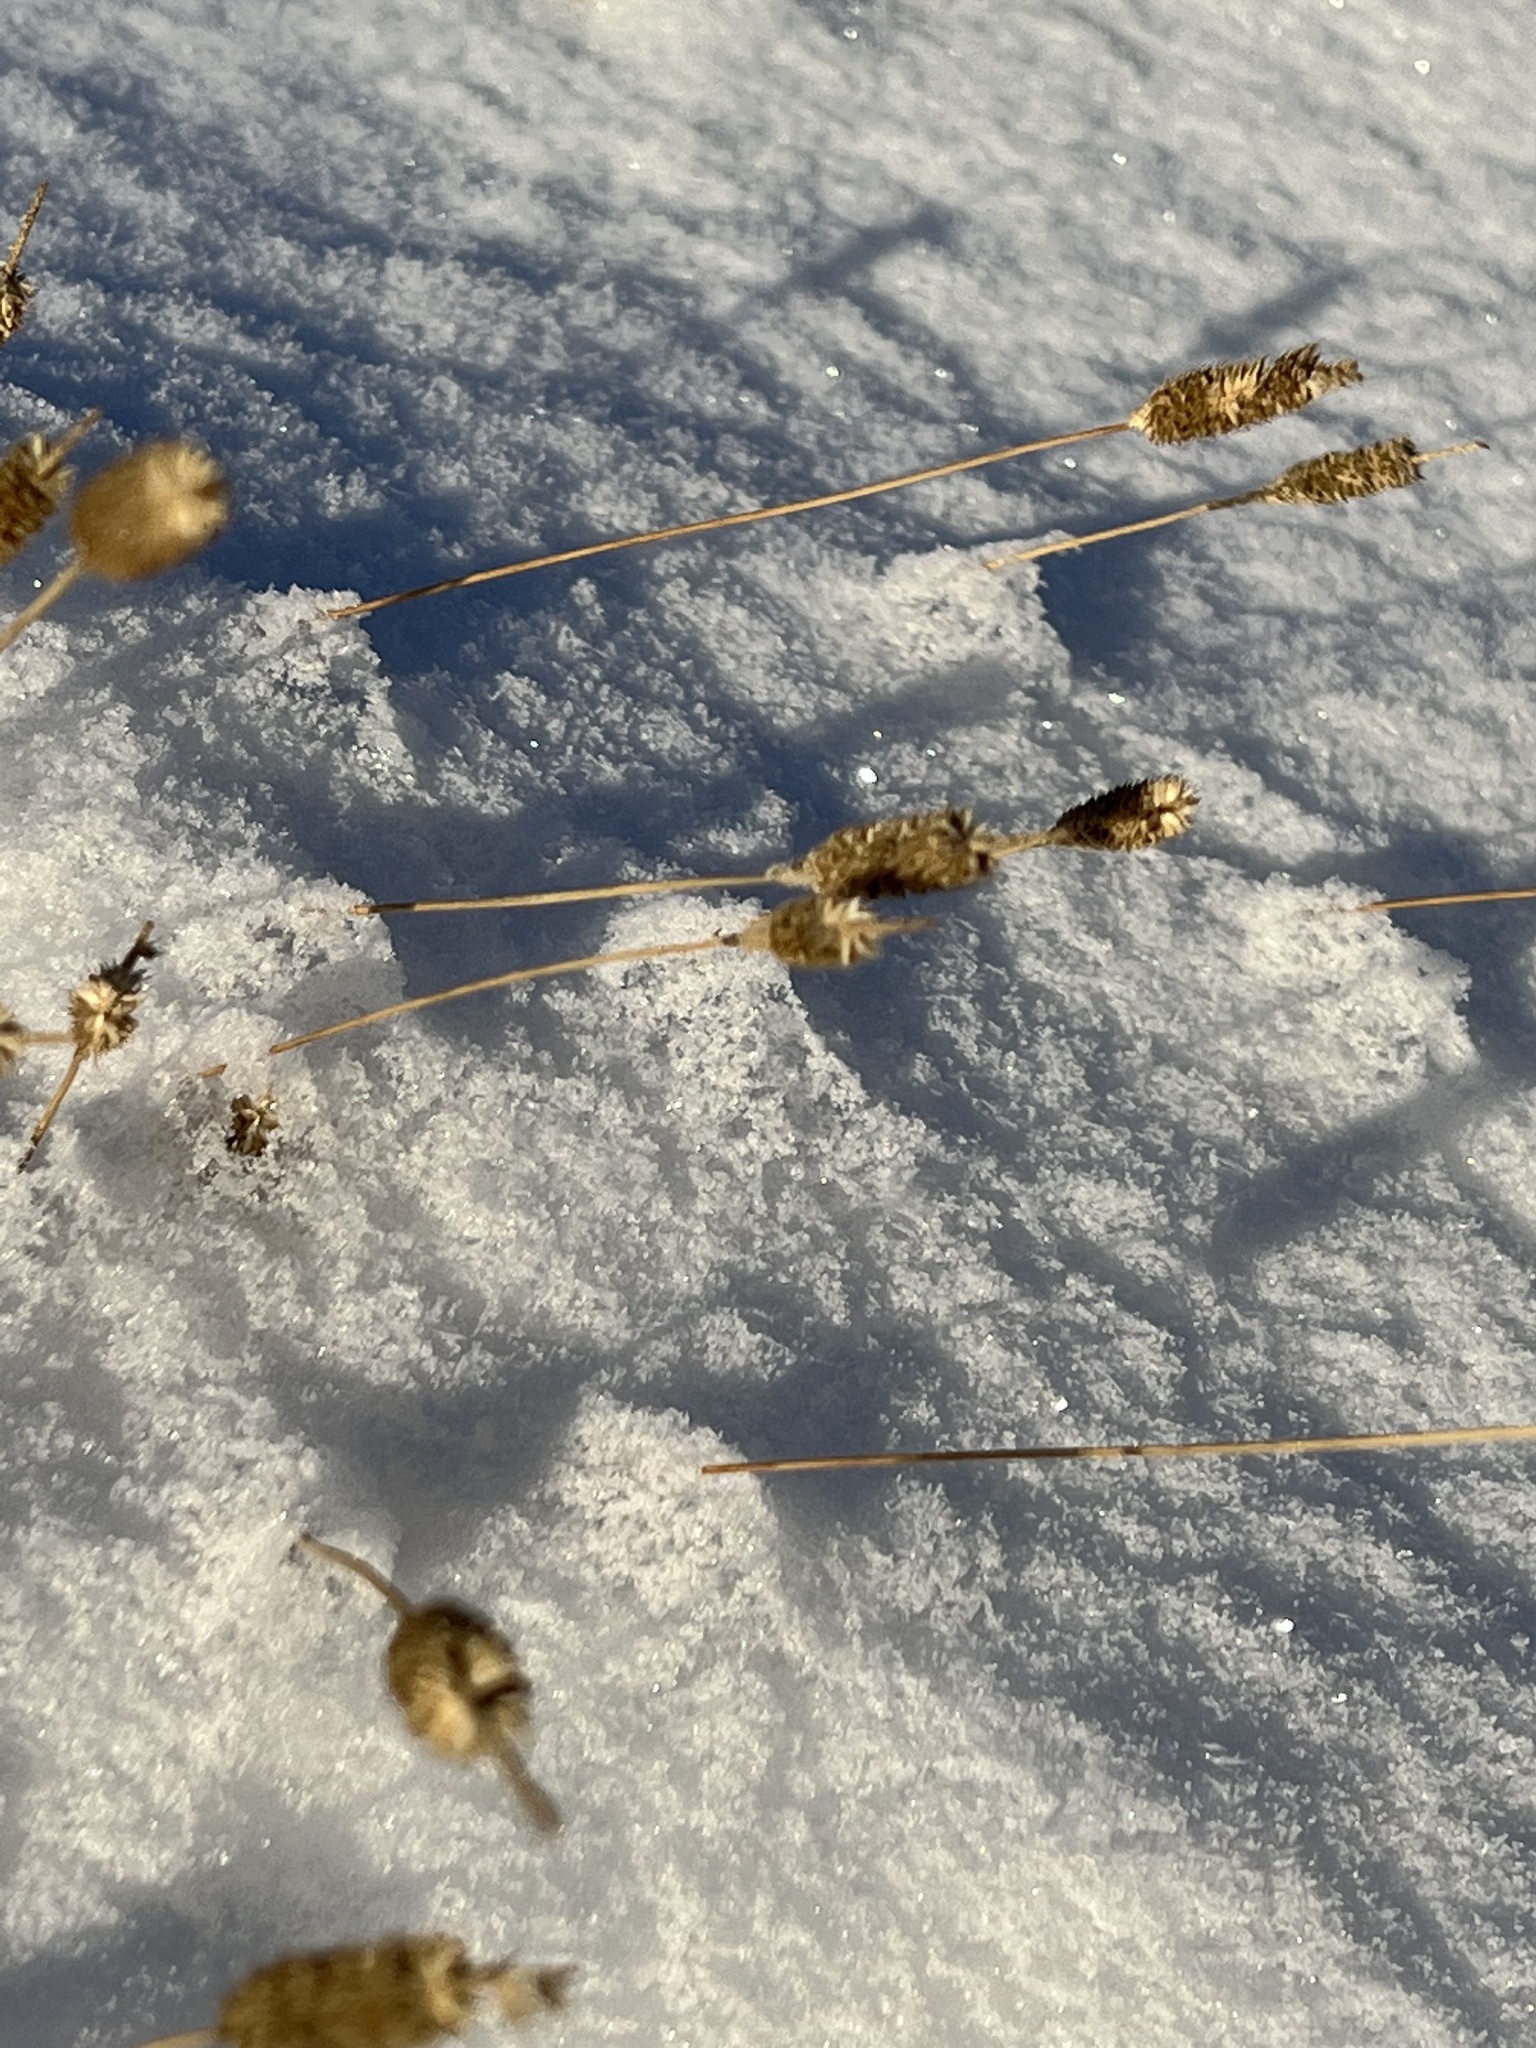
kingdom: Plantae
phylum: Tracheophyta
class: Liliopsida
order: Poales
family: Poaceae
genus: Phleum
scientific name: Phleum pratense
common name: Timothy grass
